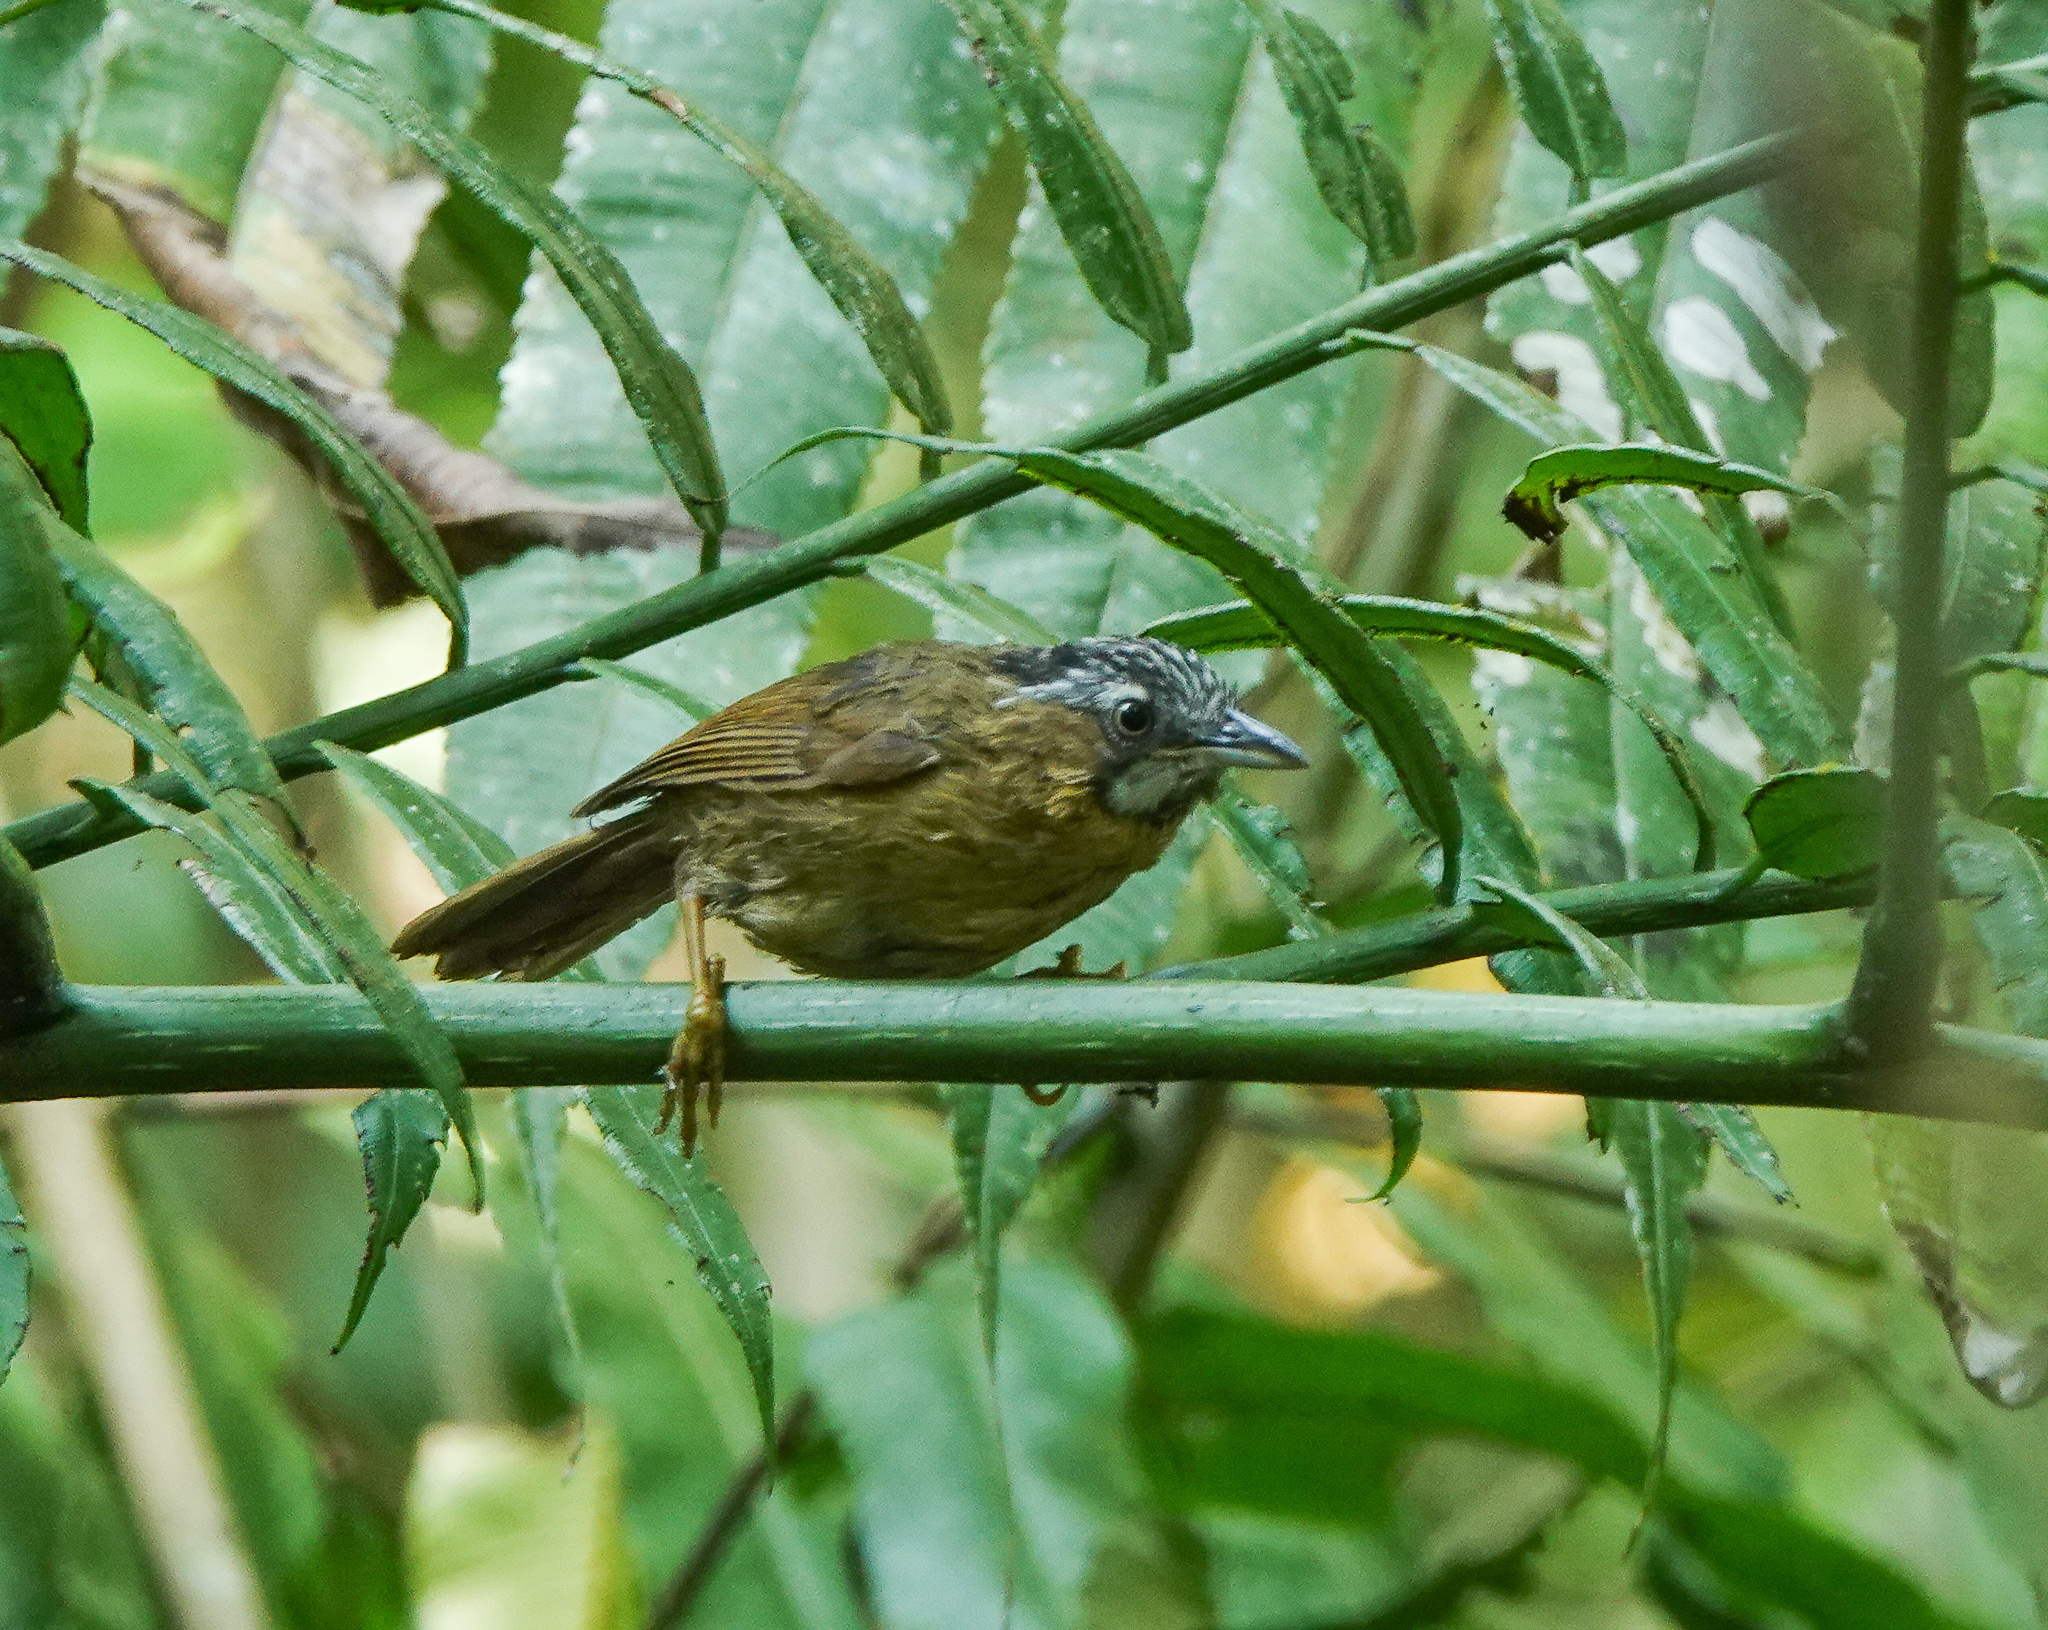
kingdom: Animalia
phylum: Chordata
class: Aves
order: Passeriformes
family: Timaliidae
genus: Stachyris
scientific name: Stachyris nigriceps
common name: Grey-throated babbler
